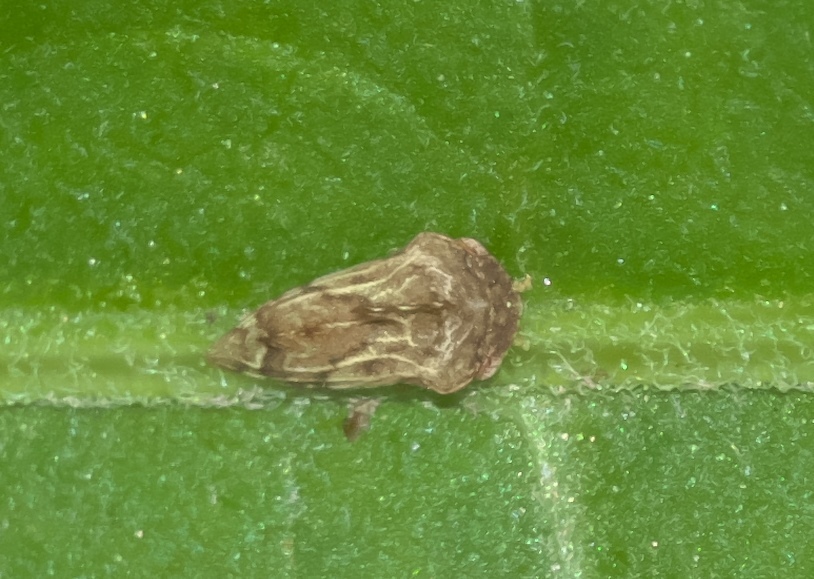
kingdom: Animalia
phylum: Arthropoda
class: Insecta
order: Hemiptera
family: Membracidae
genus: Entylia
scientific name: Entylia carinata
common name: Keeled treehopper
